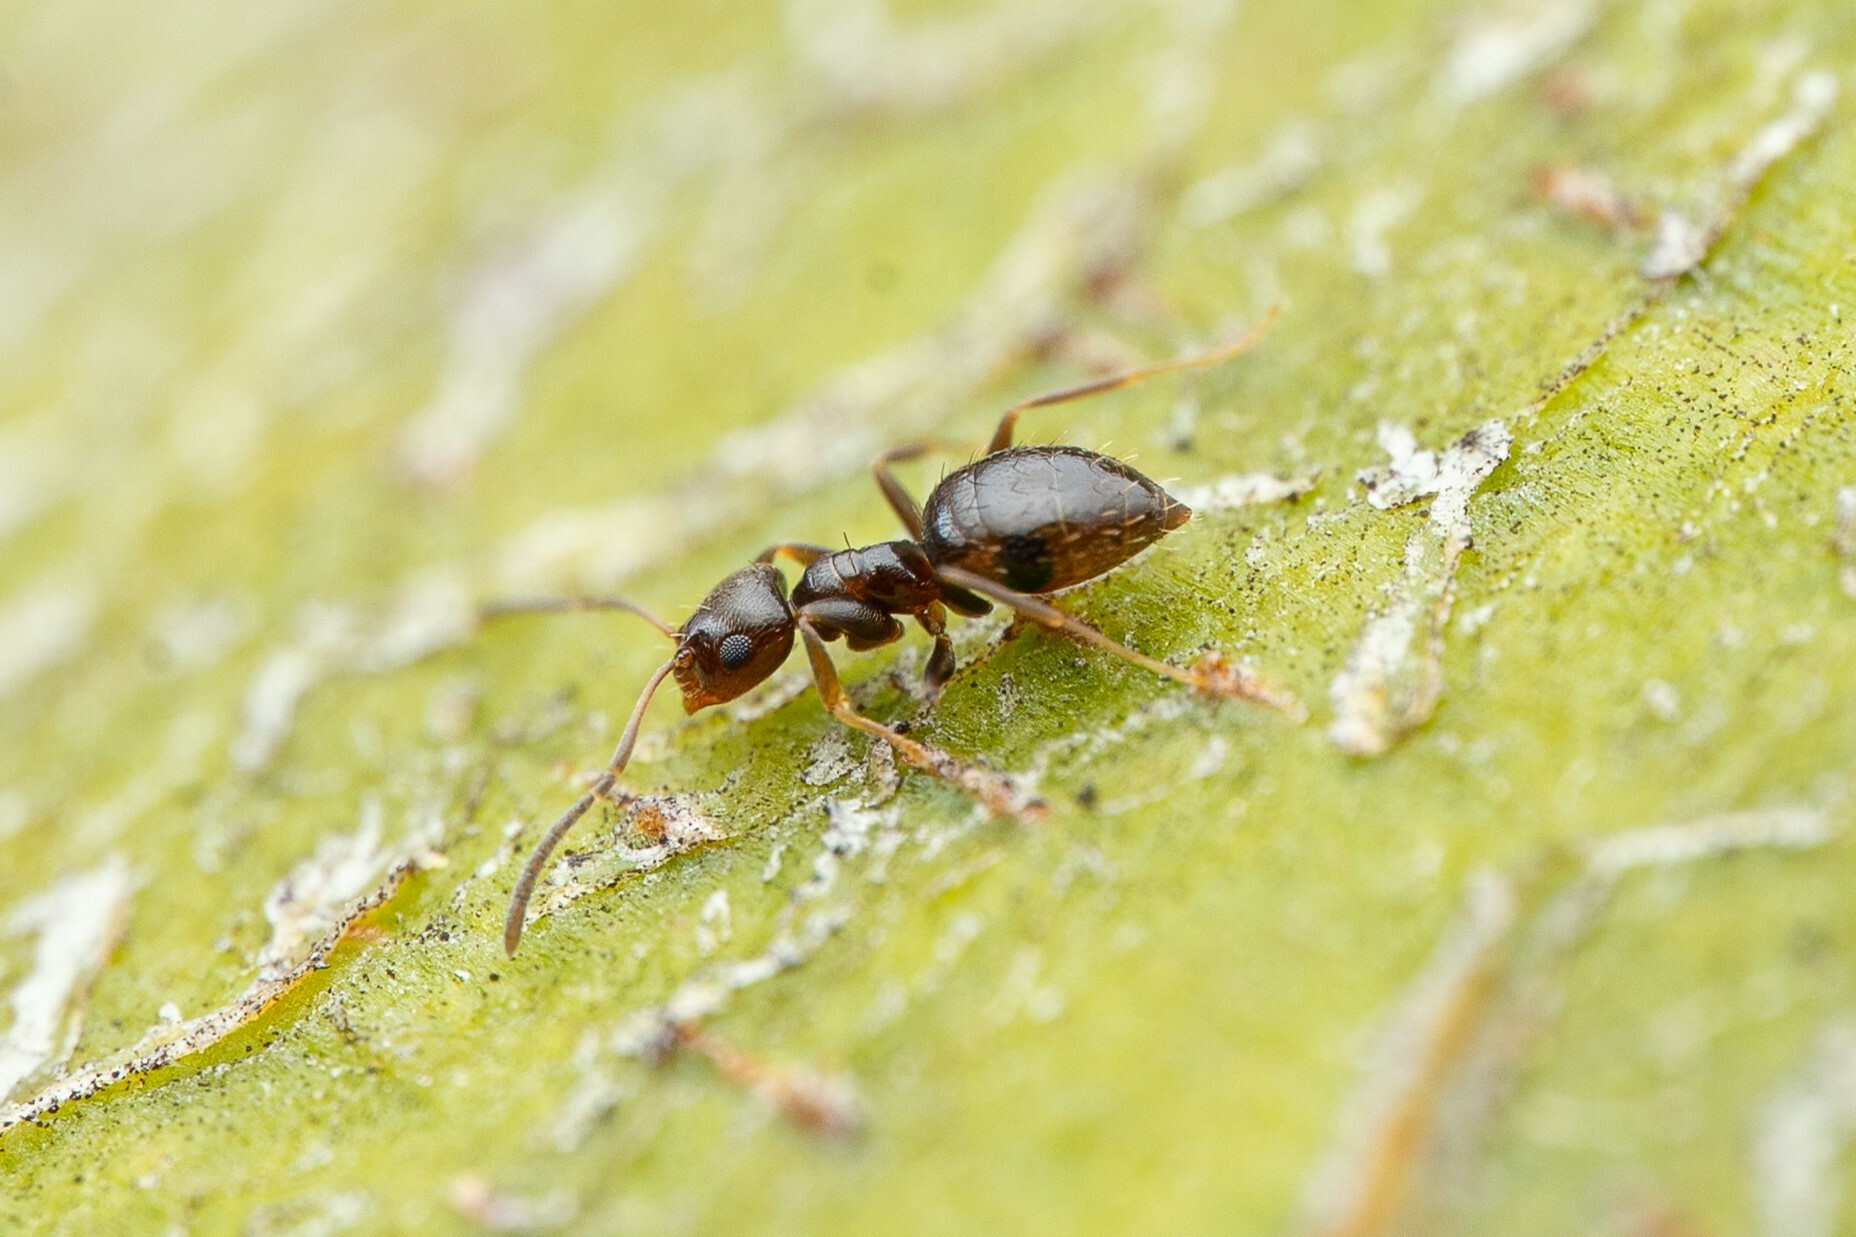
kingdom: Animalia
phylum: Arthropoda
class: Insecta
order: Hymenoptera
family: Formicidae
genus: Brachymyrmex
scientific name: Brachymyrmex patagonicus
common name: Dark rover ant
